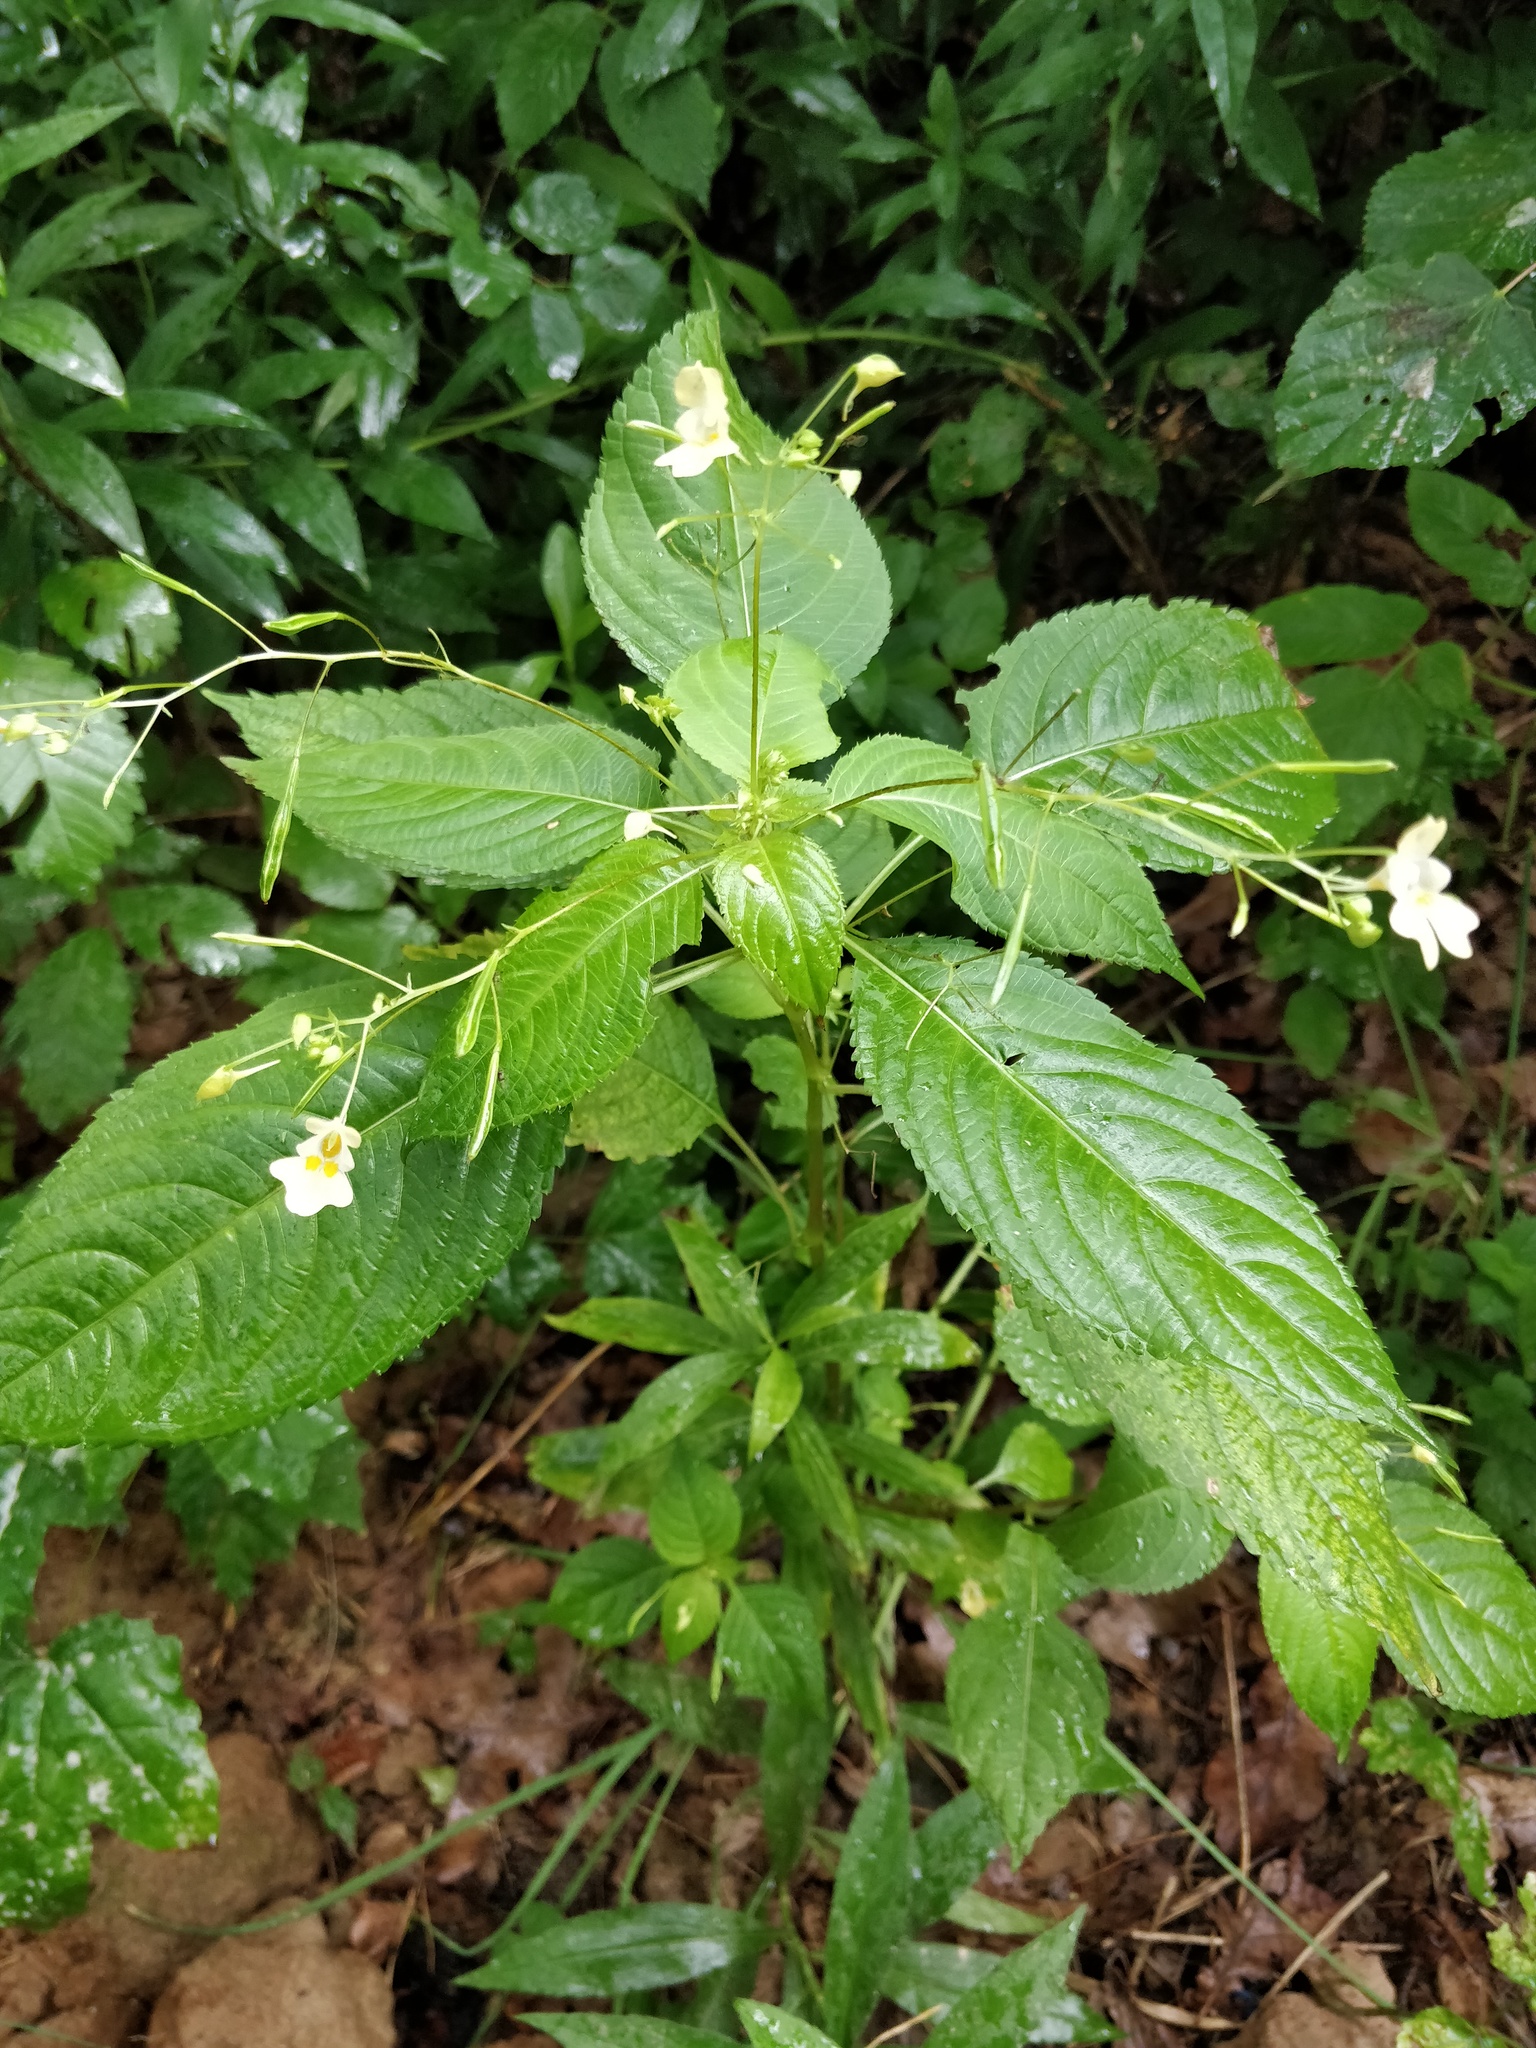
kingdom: Plantae
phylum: Tracheophyta
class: Magnoliopsida
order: Ericales
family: Balsaminaceae
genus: Impatiens
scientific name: Impatiens parviflora
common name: Small balsam
